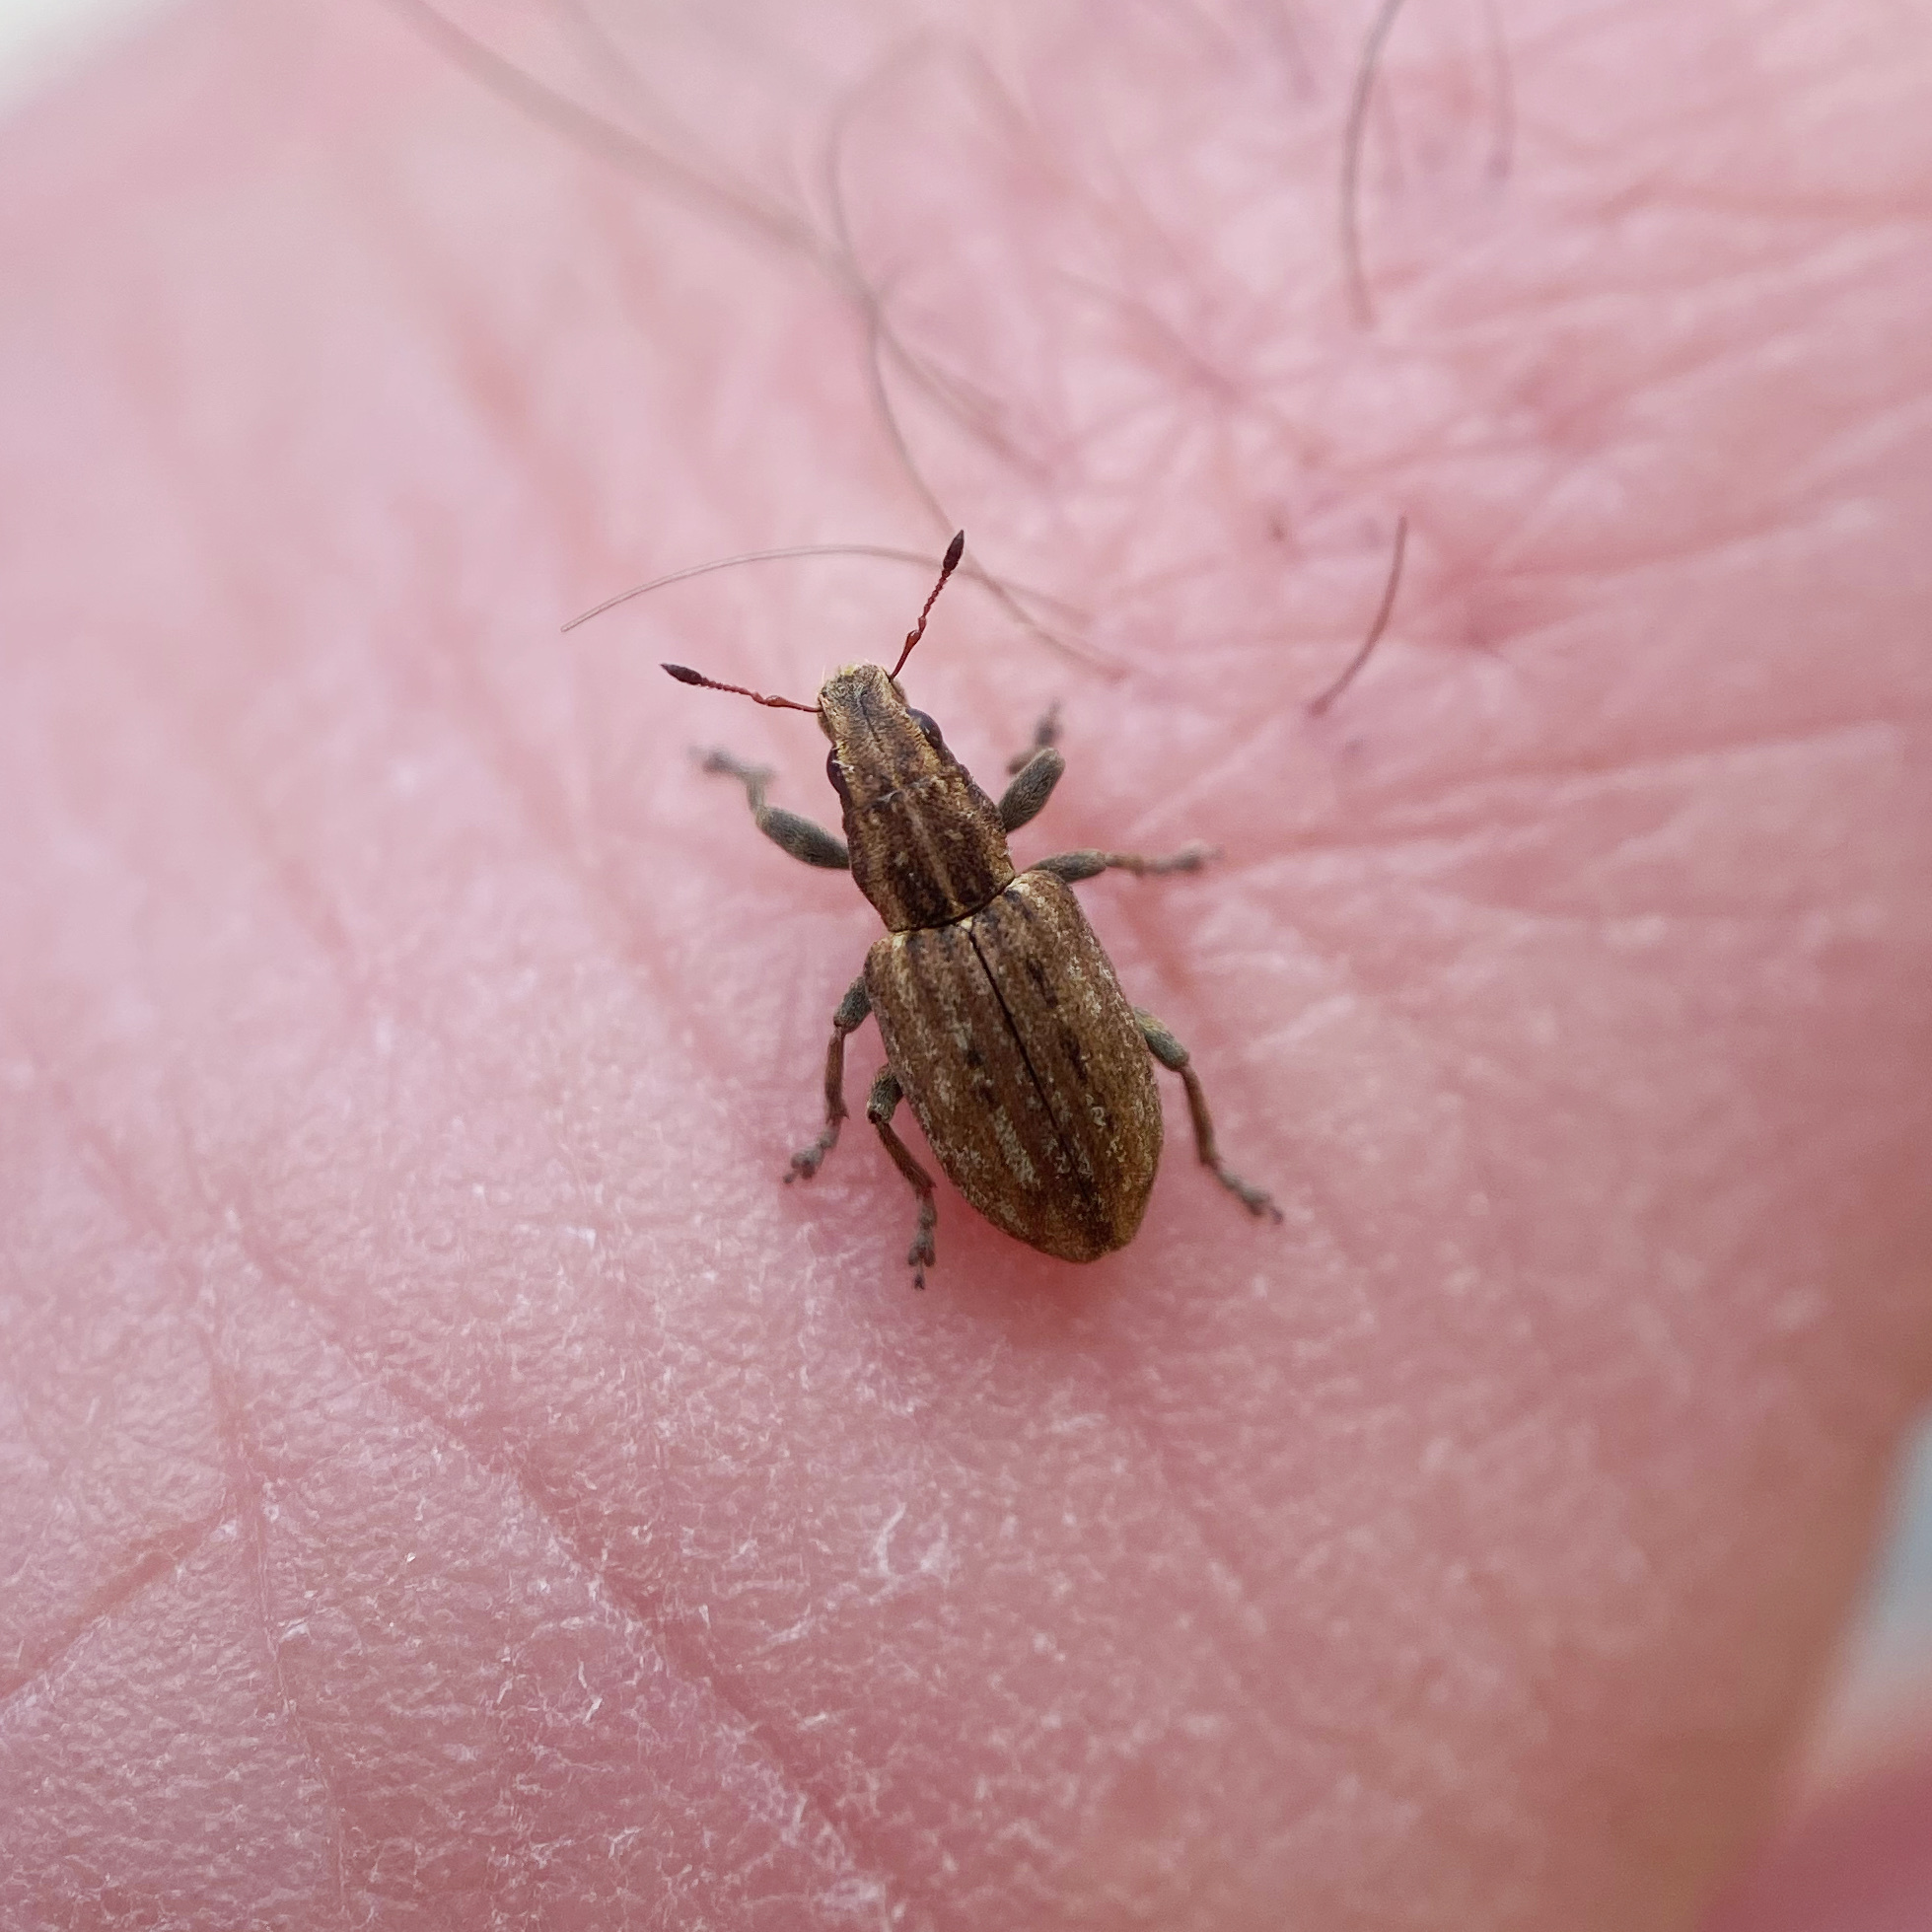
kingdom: Animalia
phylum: Arthropoda
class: Insecta
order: Coleoptera
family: Curculionidae
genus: Sitona
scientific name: Sitona obsoletus
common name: Weevil
